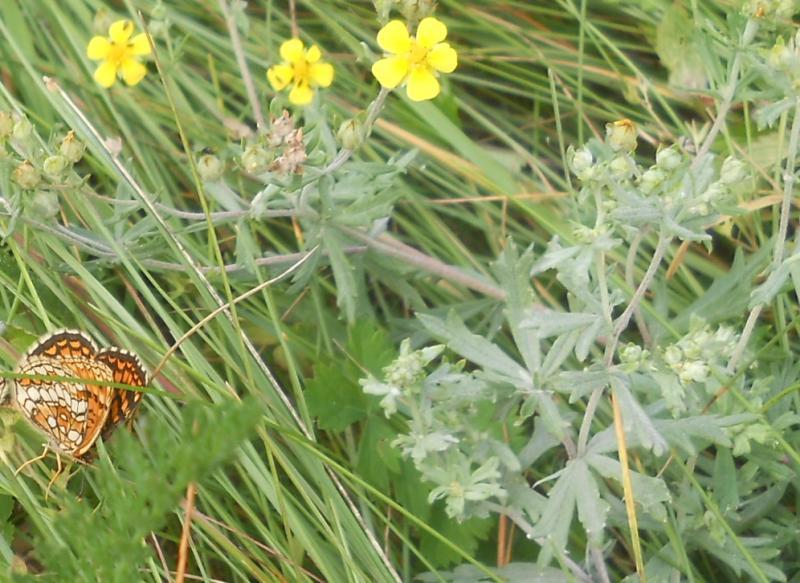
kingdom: Plantae
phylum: Tracheophyta
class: Magnoliopsida
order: Rosales
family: Rosaceae
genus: Potentilla
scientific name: Potentilla argentea
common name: Hoary cinquefoil
